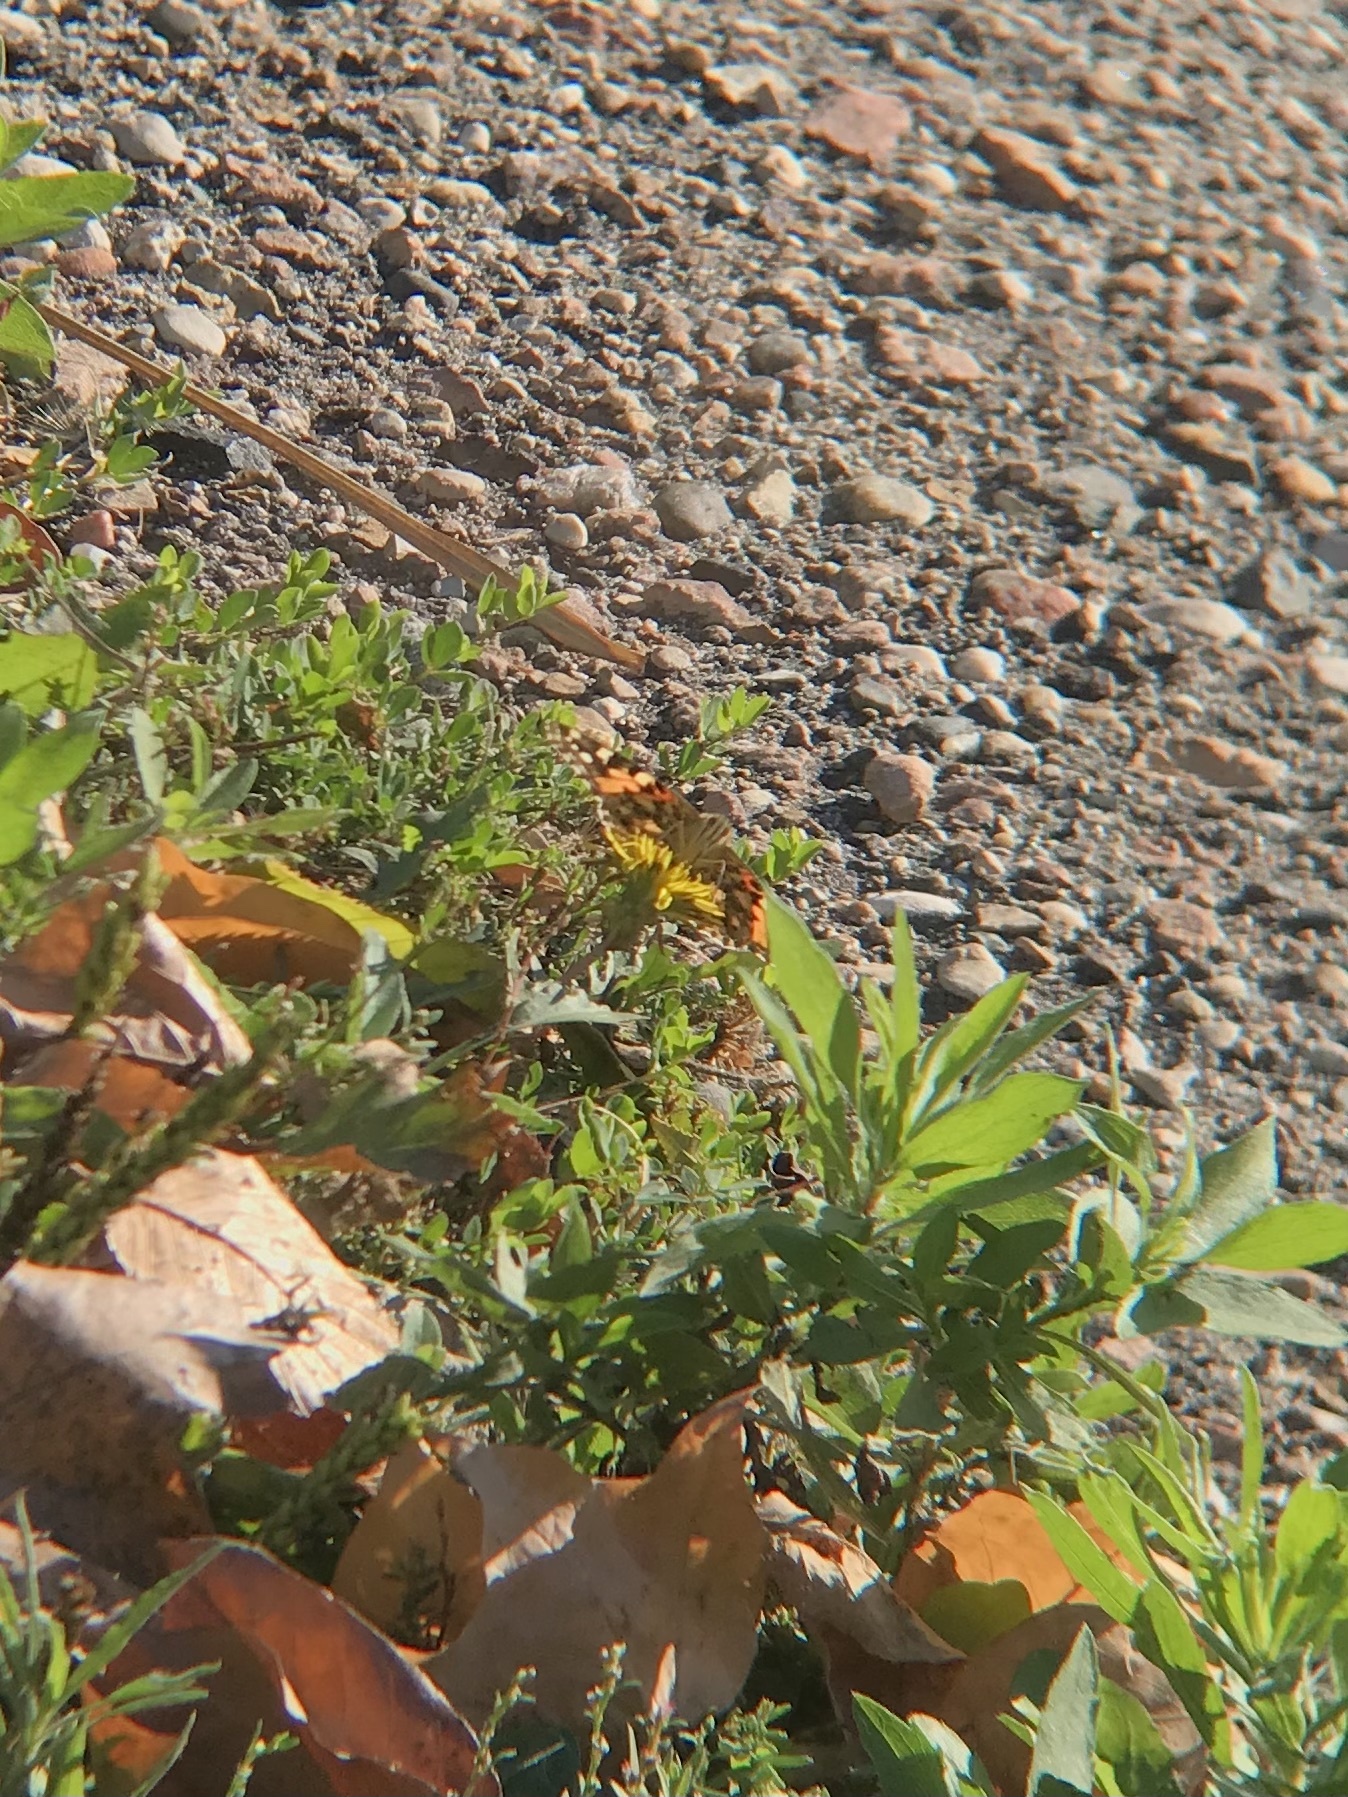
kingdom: Animalia
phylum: Arthropoda
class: Insecta
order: Lepidoptera
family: Nymphalidae
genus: Vanessa
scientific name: Vanessa cardui
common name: Painted lady
